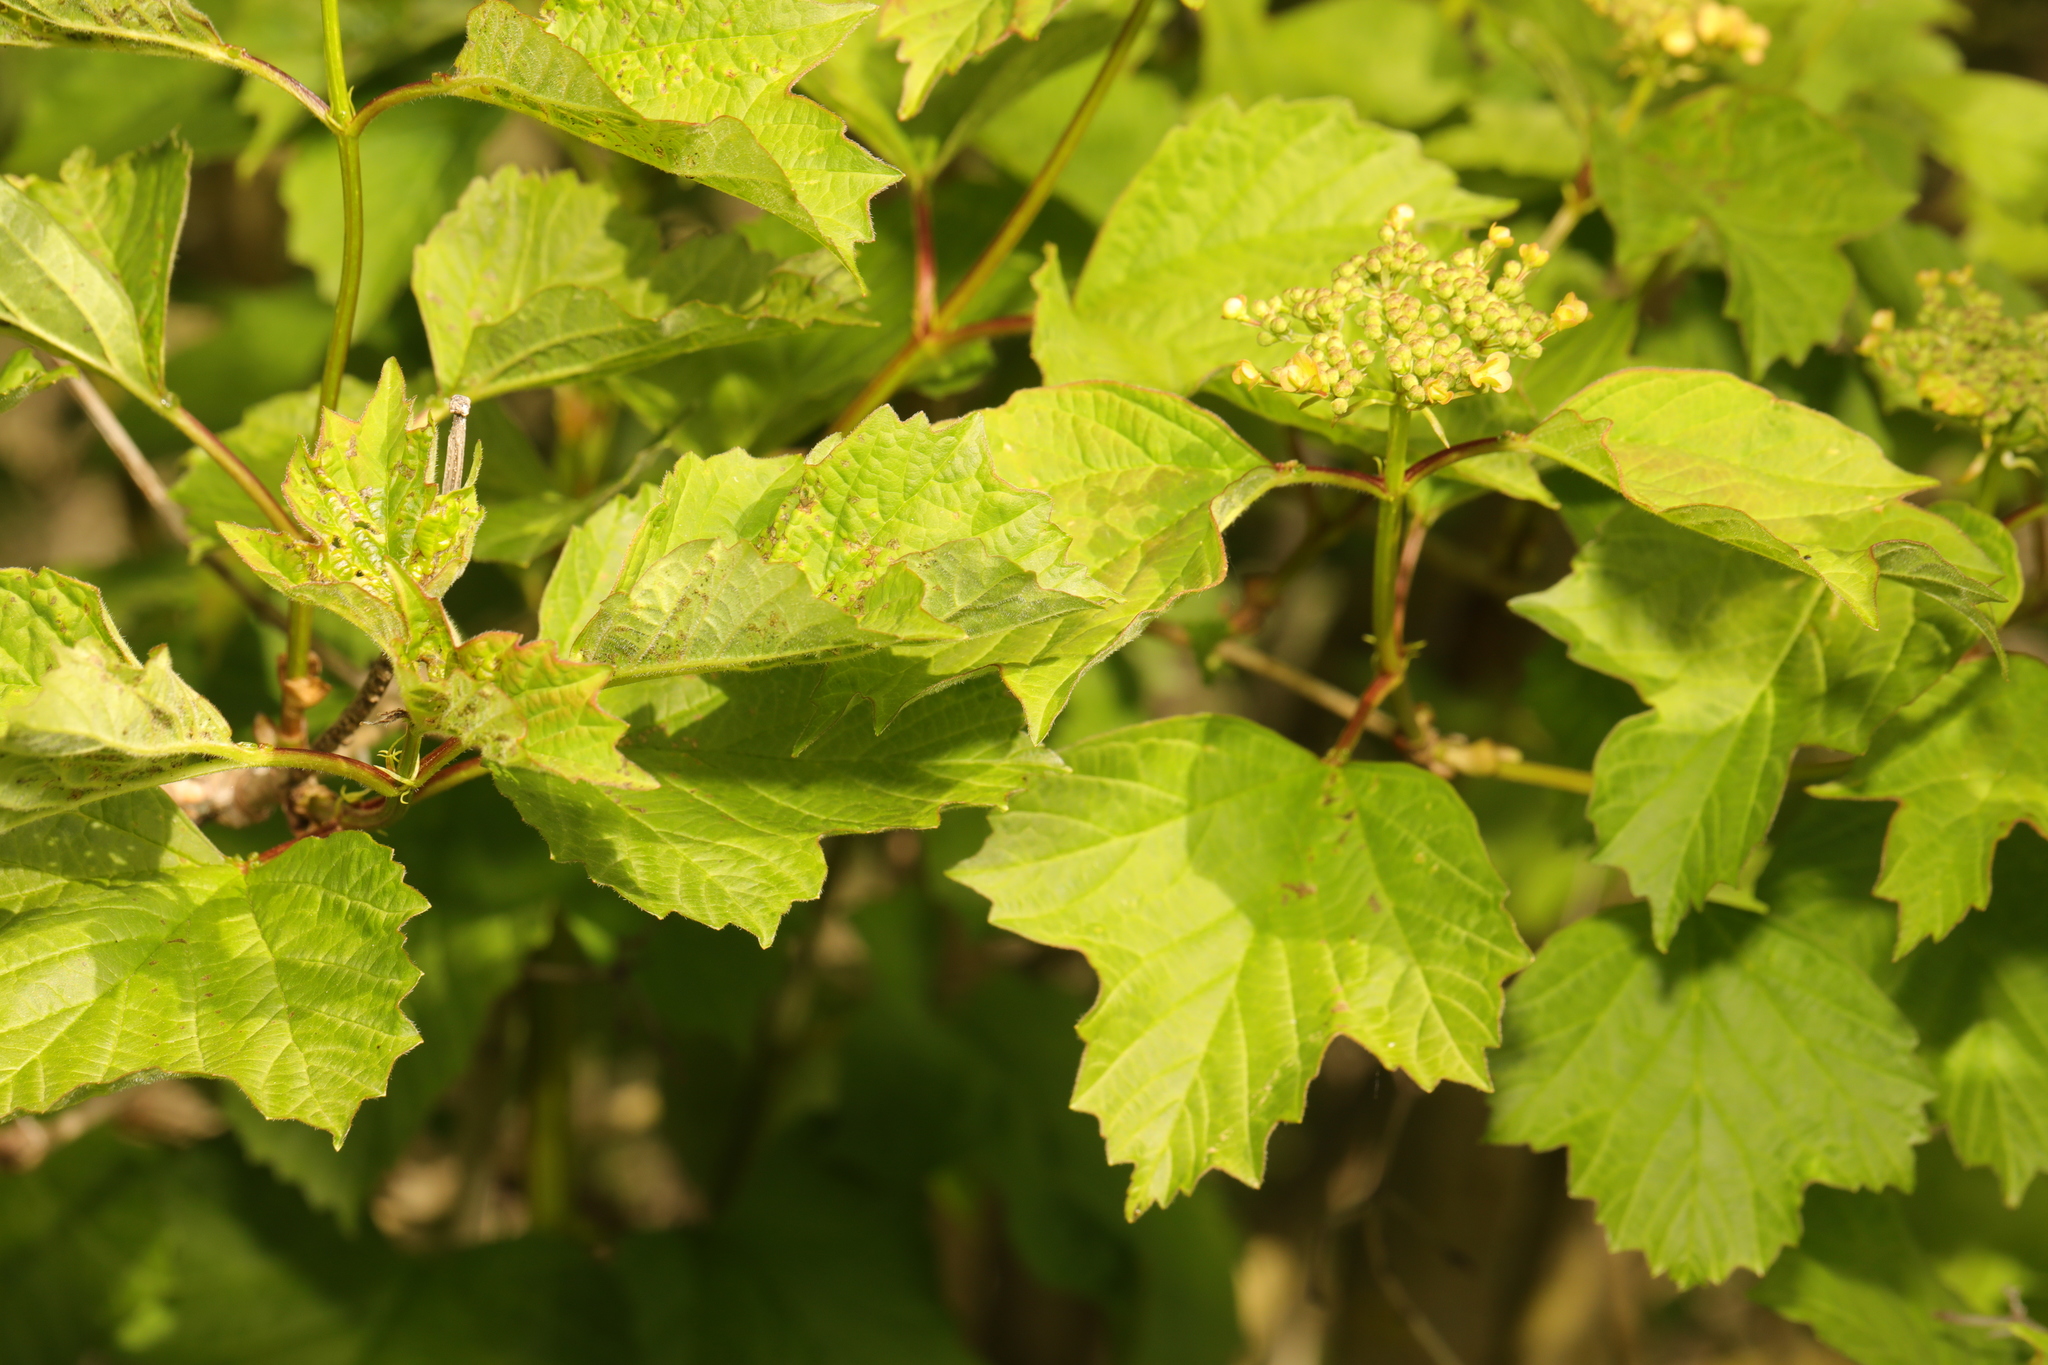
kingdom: Plantae
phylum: Tracheophyta
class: Magnoliopsida
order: Dipsacales
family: Viburnaceae
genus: Viburnum
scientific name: Viburnum opulus
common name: Guelder-rose
